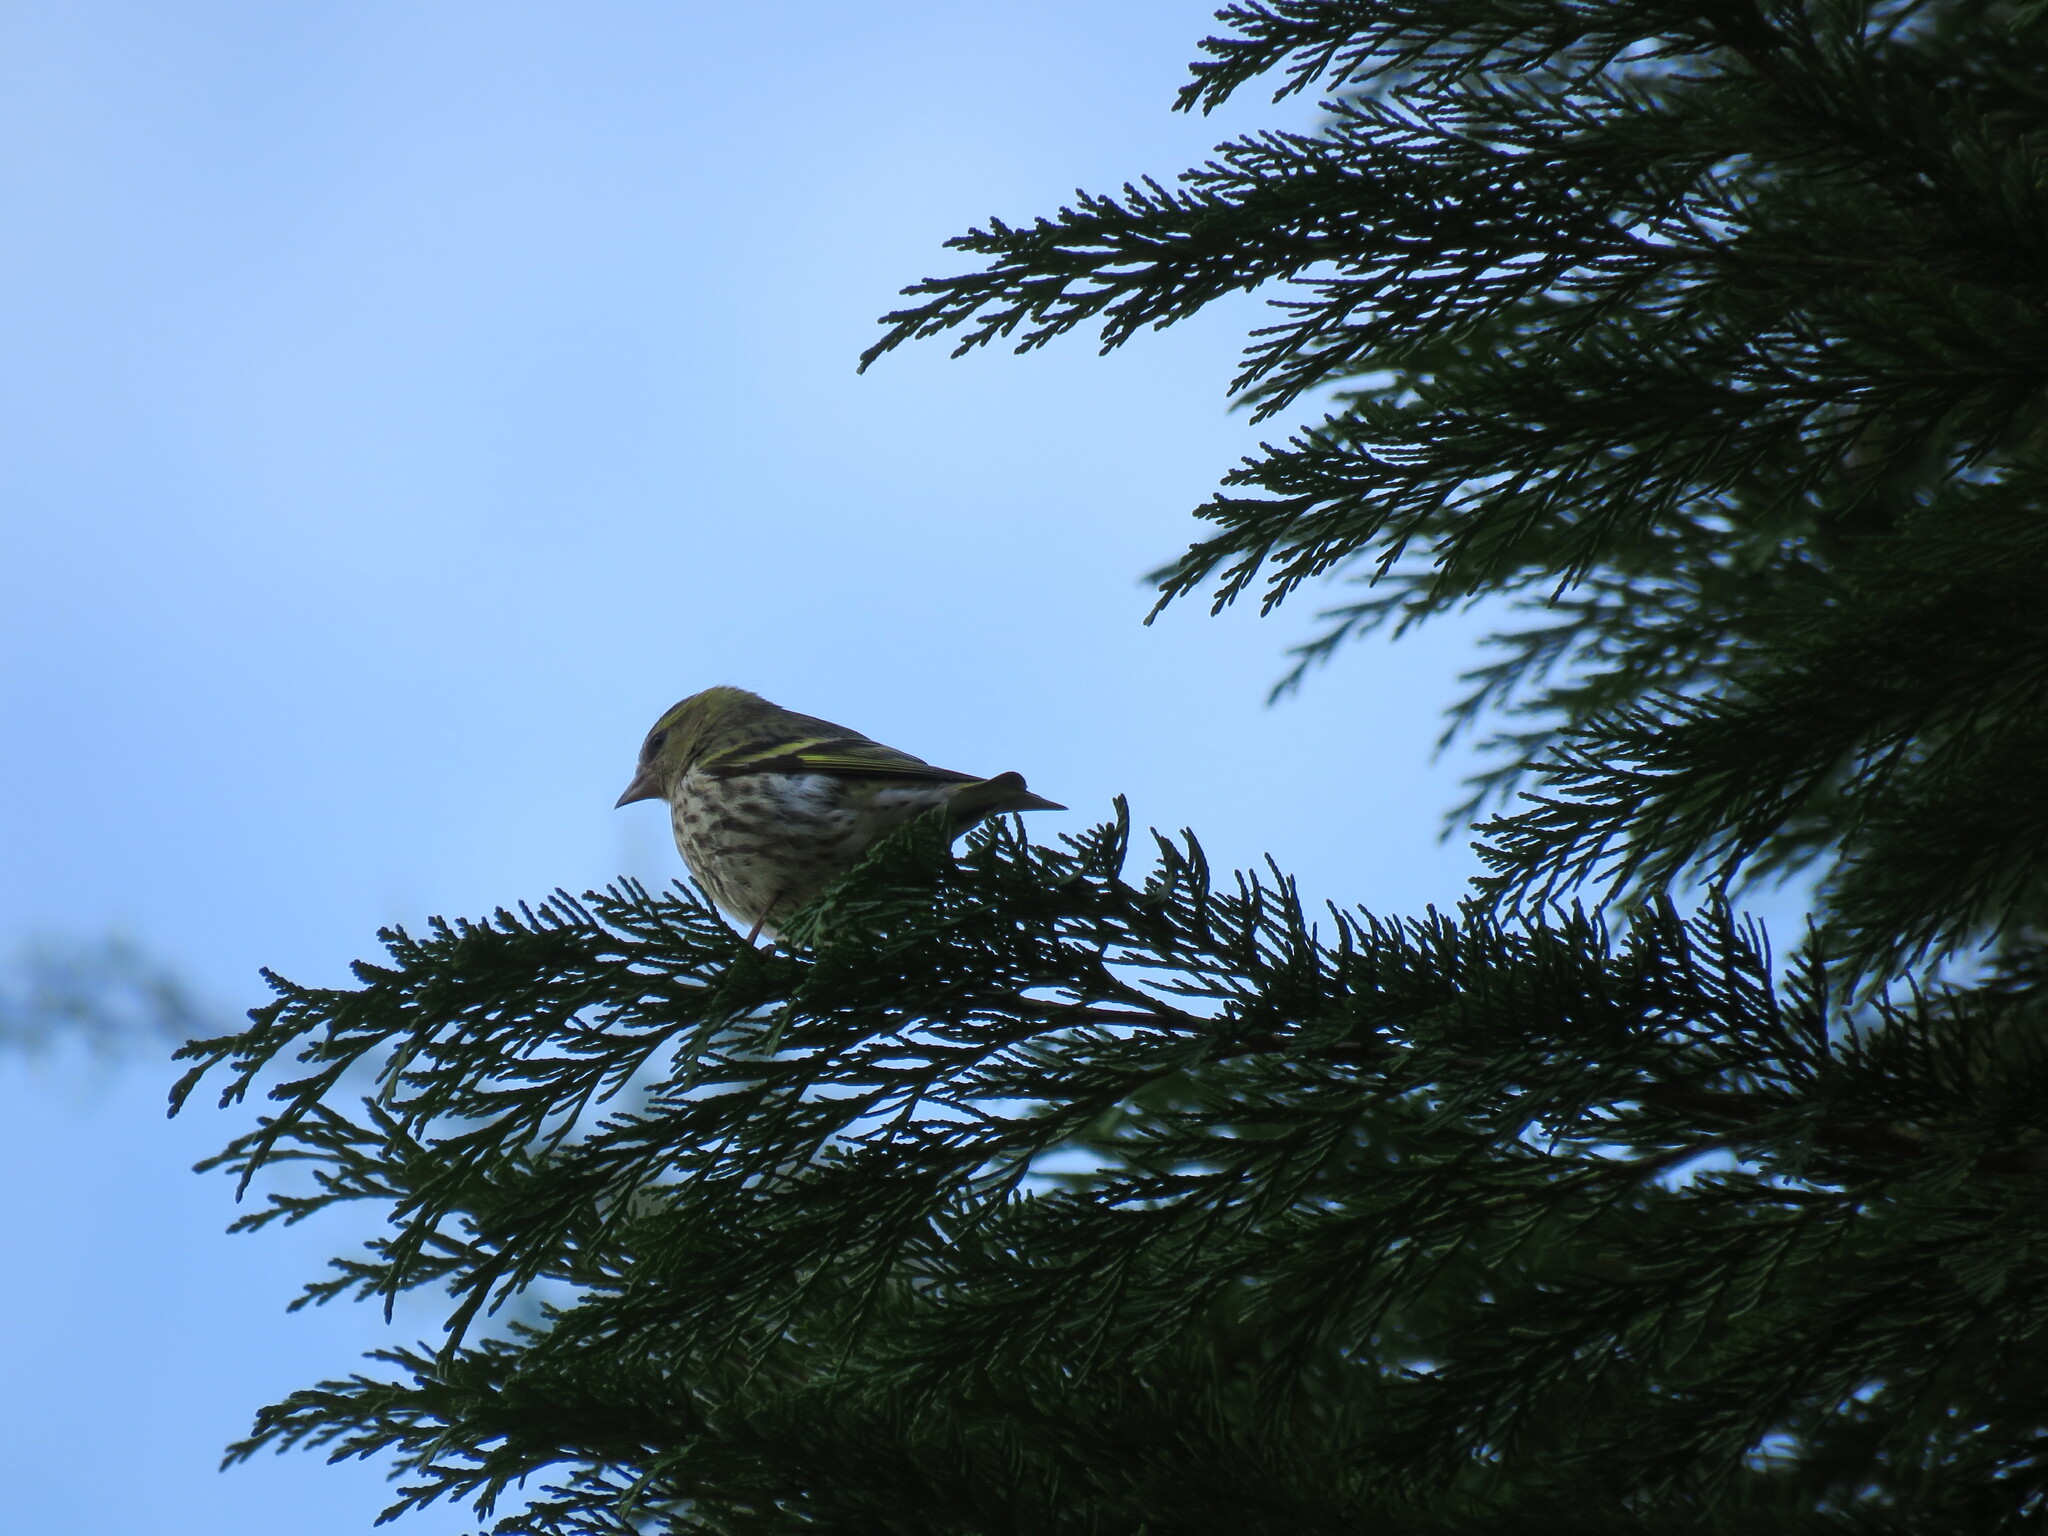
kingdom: Animalia
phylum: Chordata
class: Aves
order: Passeriformes
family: Fringillidae
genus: Spinus
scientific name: Spinus spinus
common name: Eurasian siskin
